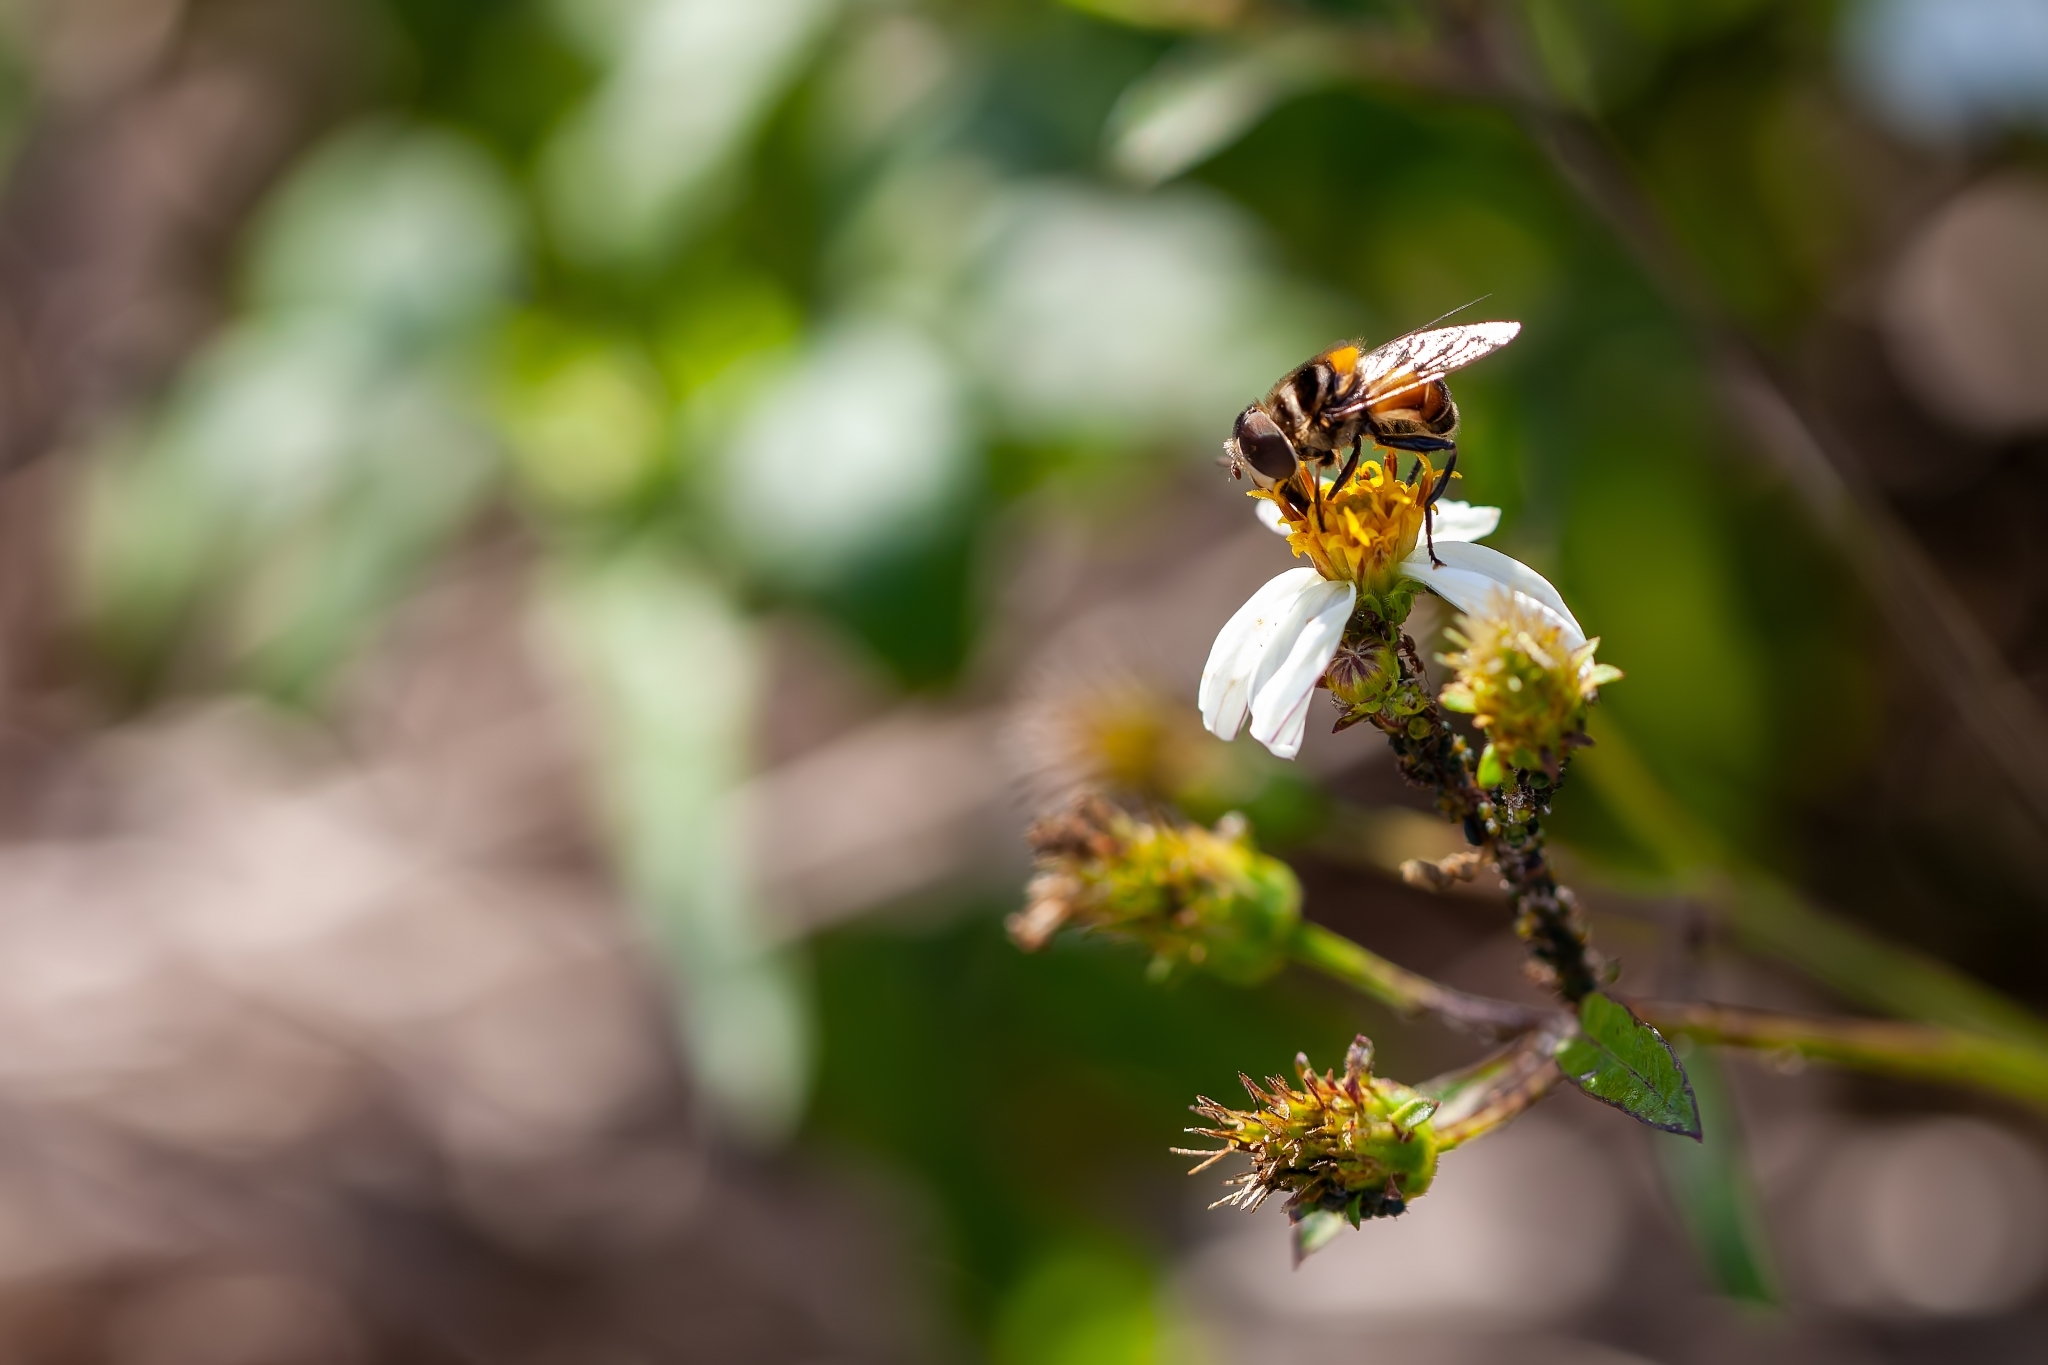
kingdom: Animalia
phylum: Arthropoda
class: Insecta
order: Diptera
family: Syrphidae
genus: Palpada
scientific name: Palpada agrorum
